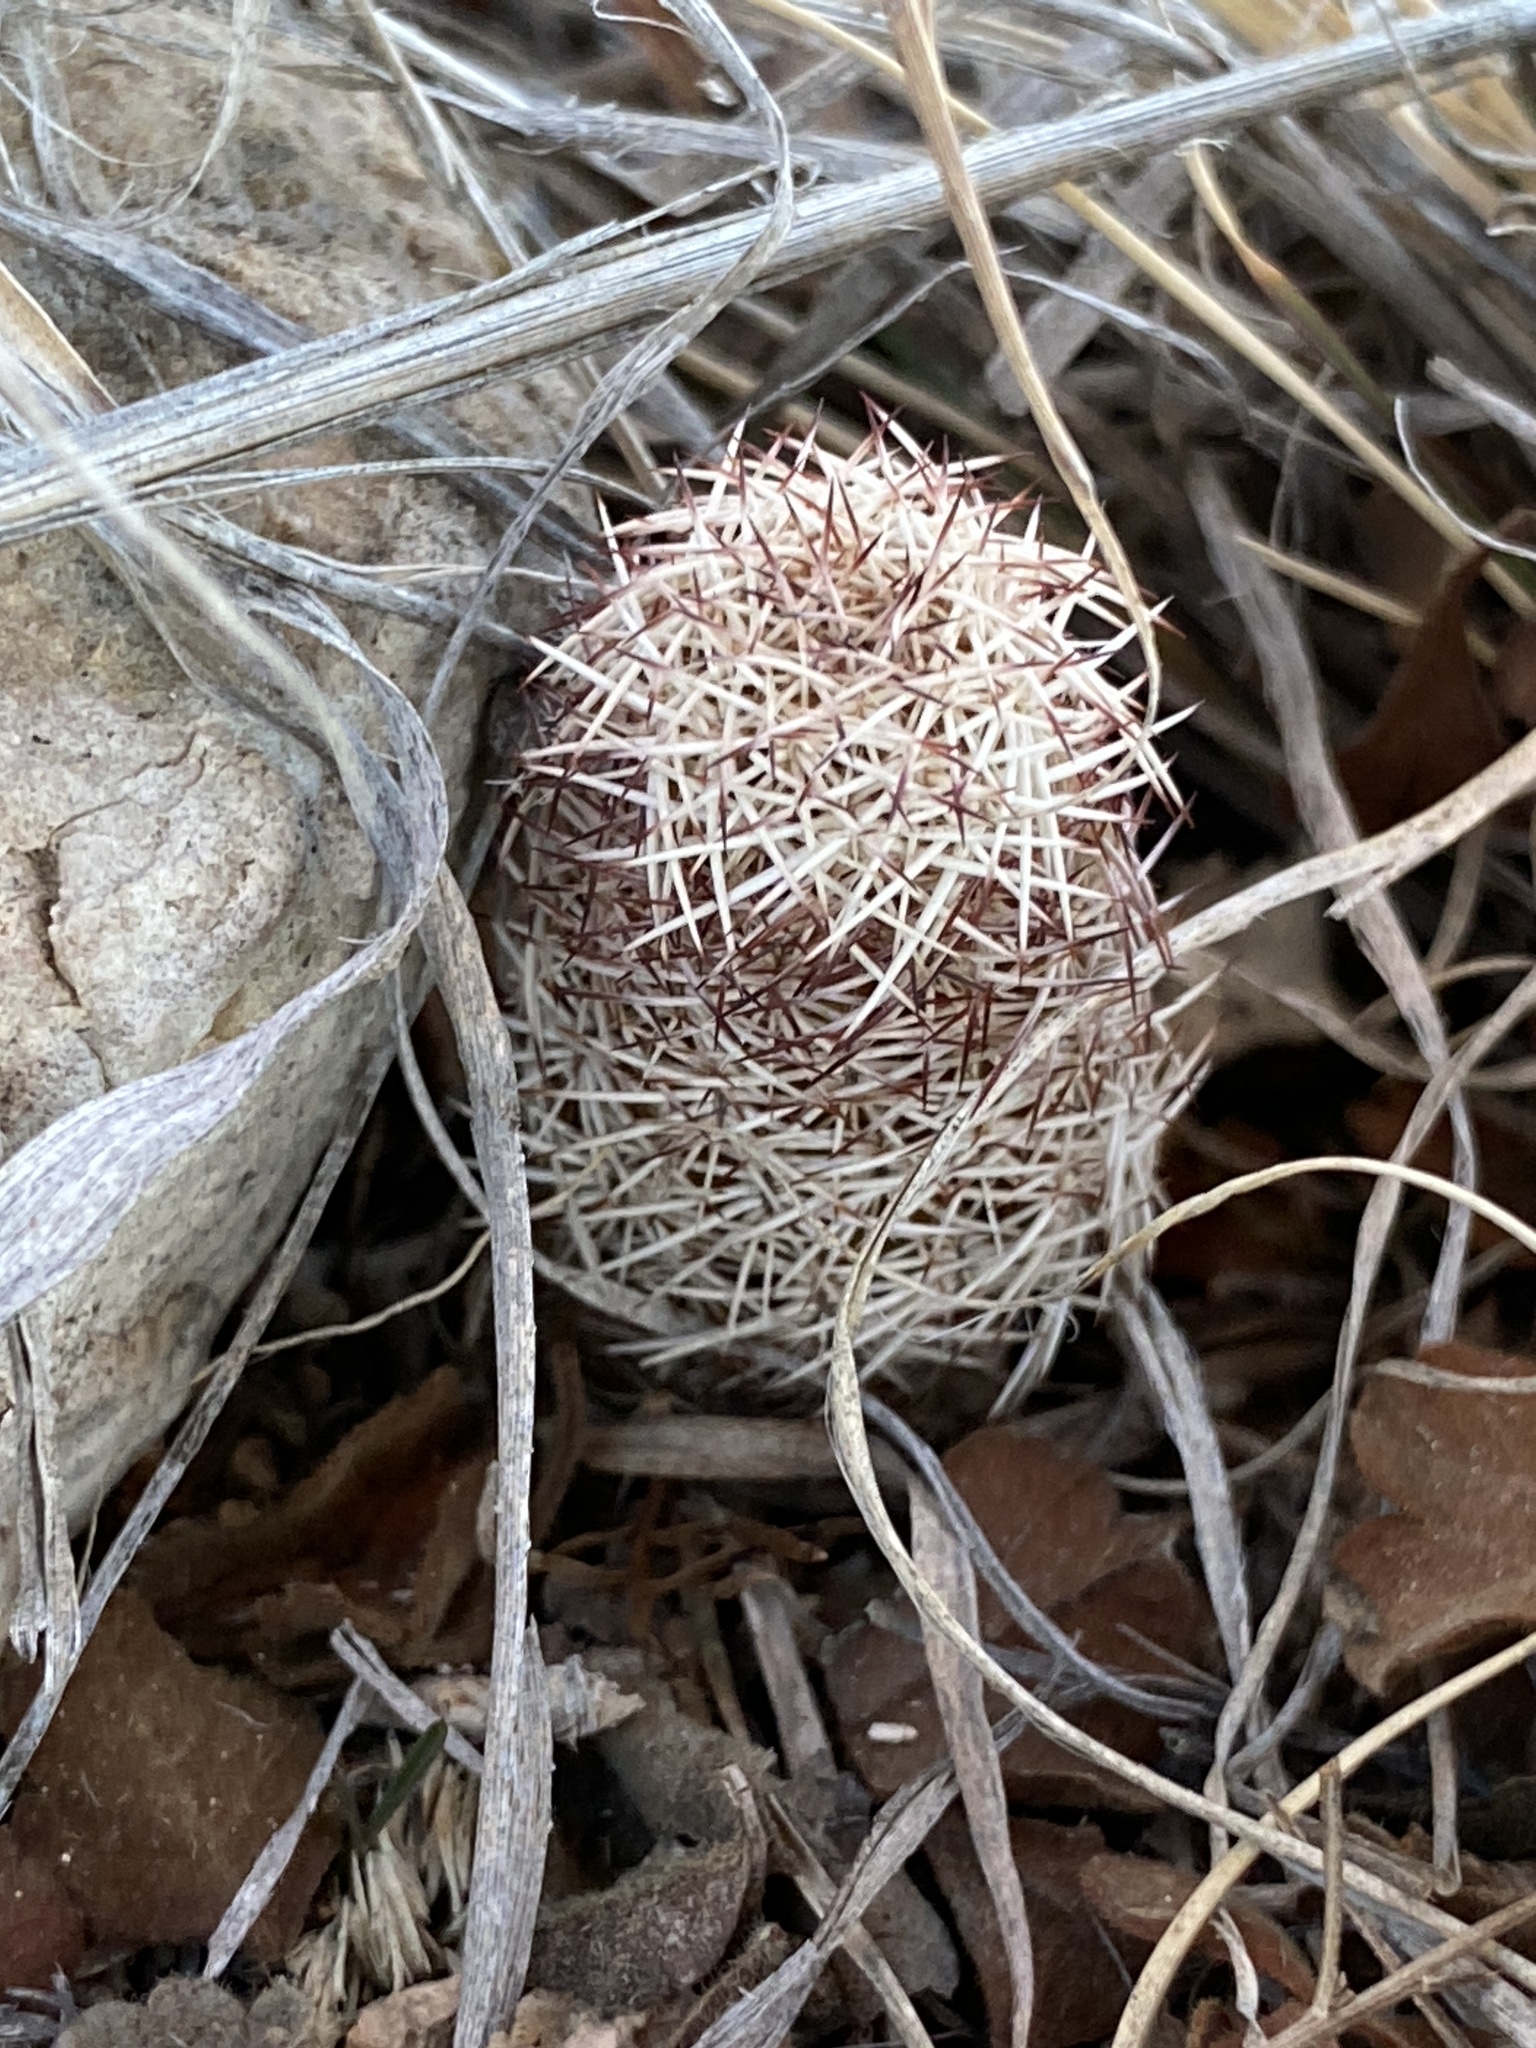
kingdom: Plantae
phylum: Tracheophyta
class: Magnoliopsida
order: Caryophyllales
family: Cactaceae
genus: Echinocereus
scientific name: Echinocereus reichenbachii
